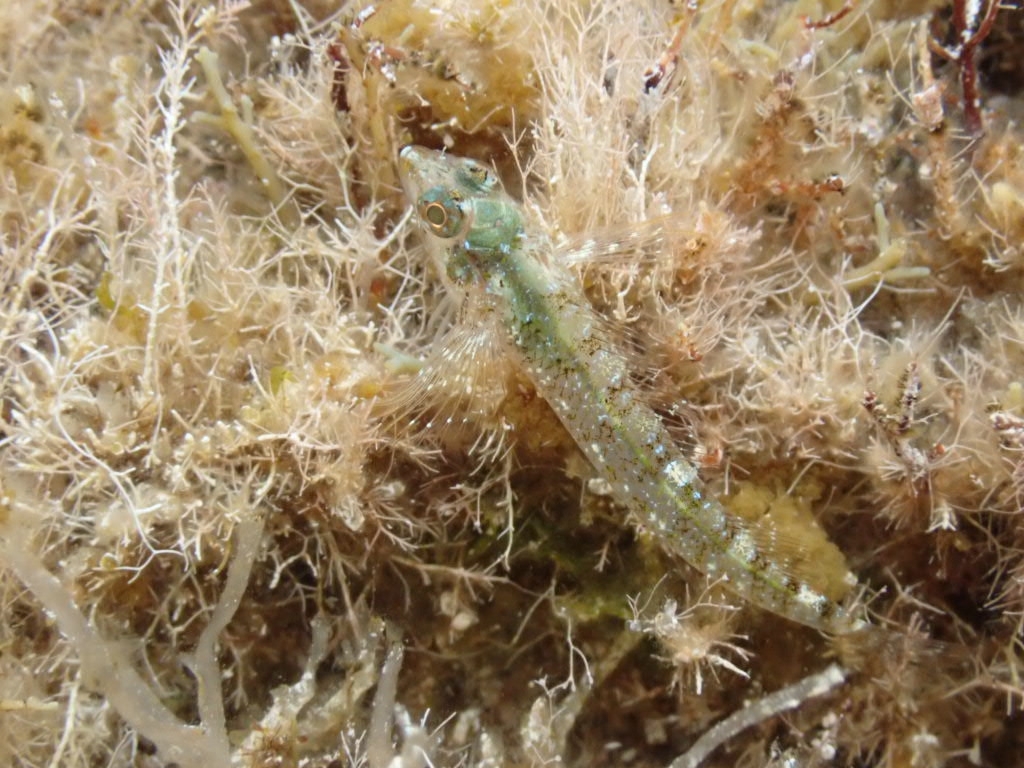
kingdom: Animalia
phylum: Chordata
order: Perciformes
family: Tripterygiidae
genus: Tripterygion
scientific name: Tripterygion tripteronotum
